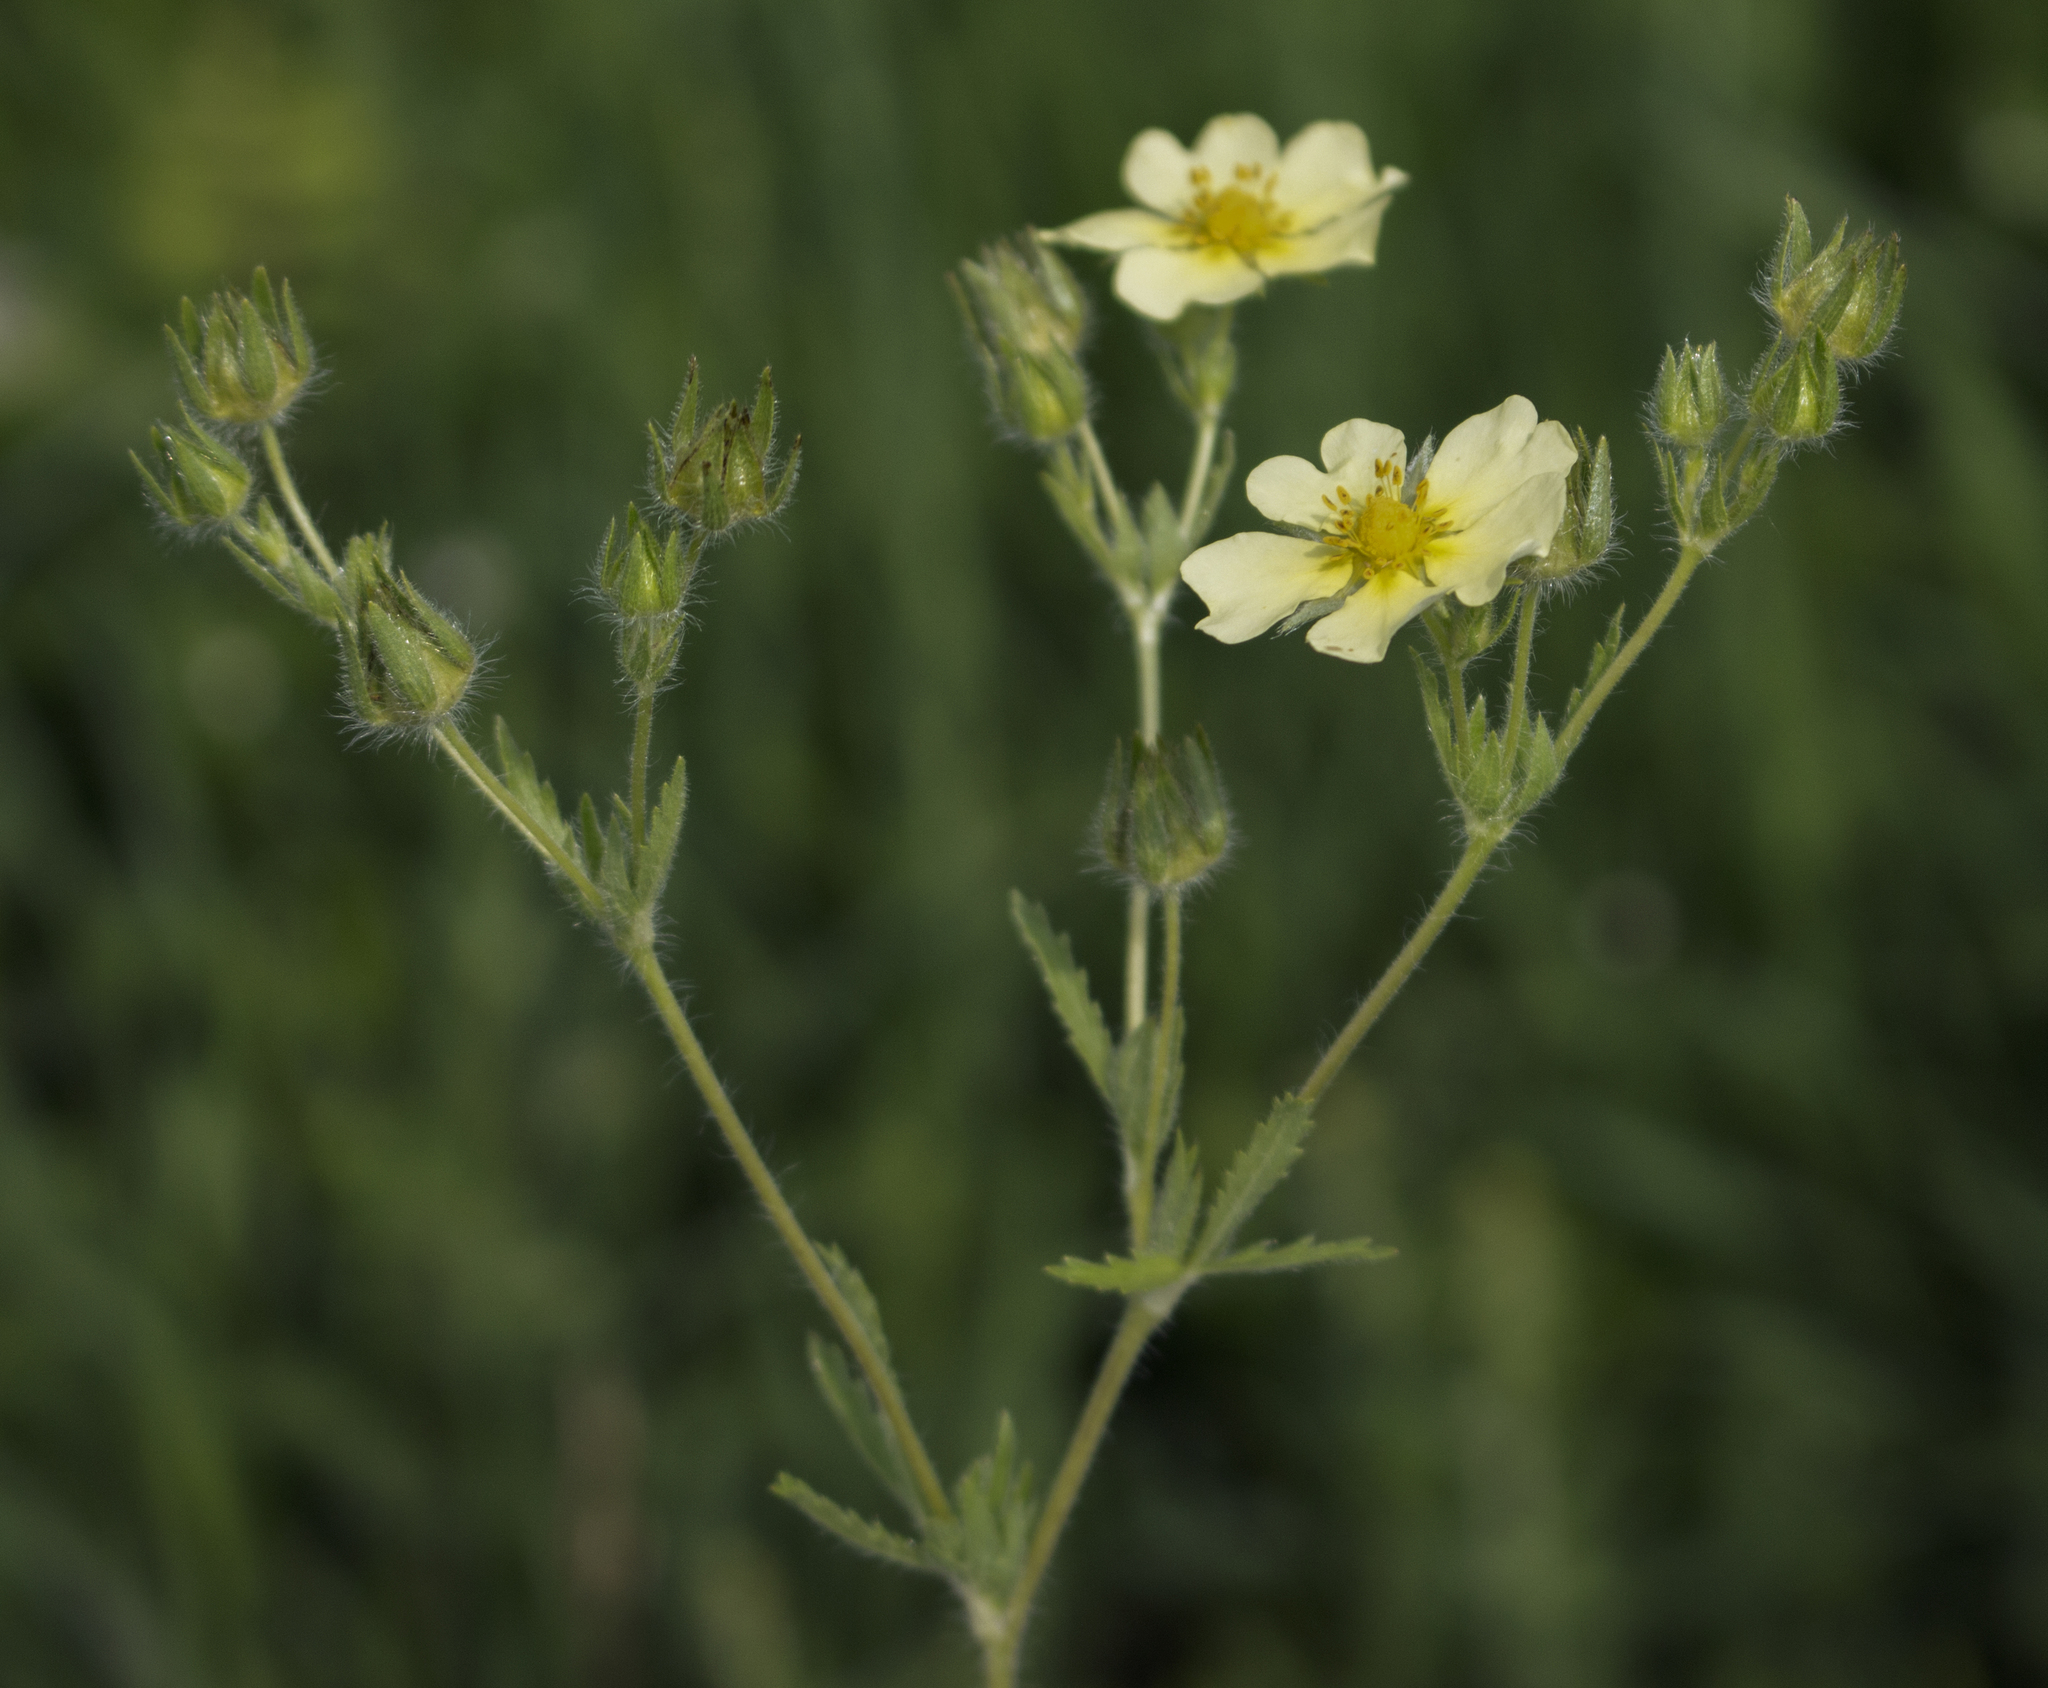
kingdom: Plantae
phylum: Tracheophyta
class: Magnoliopsida
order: Rosales
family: Rosaceae
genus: Potentilla
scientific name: Potentilla recta
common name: Sulphur cinquefoil
